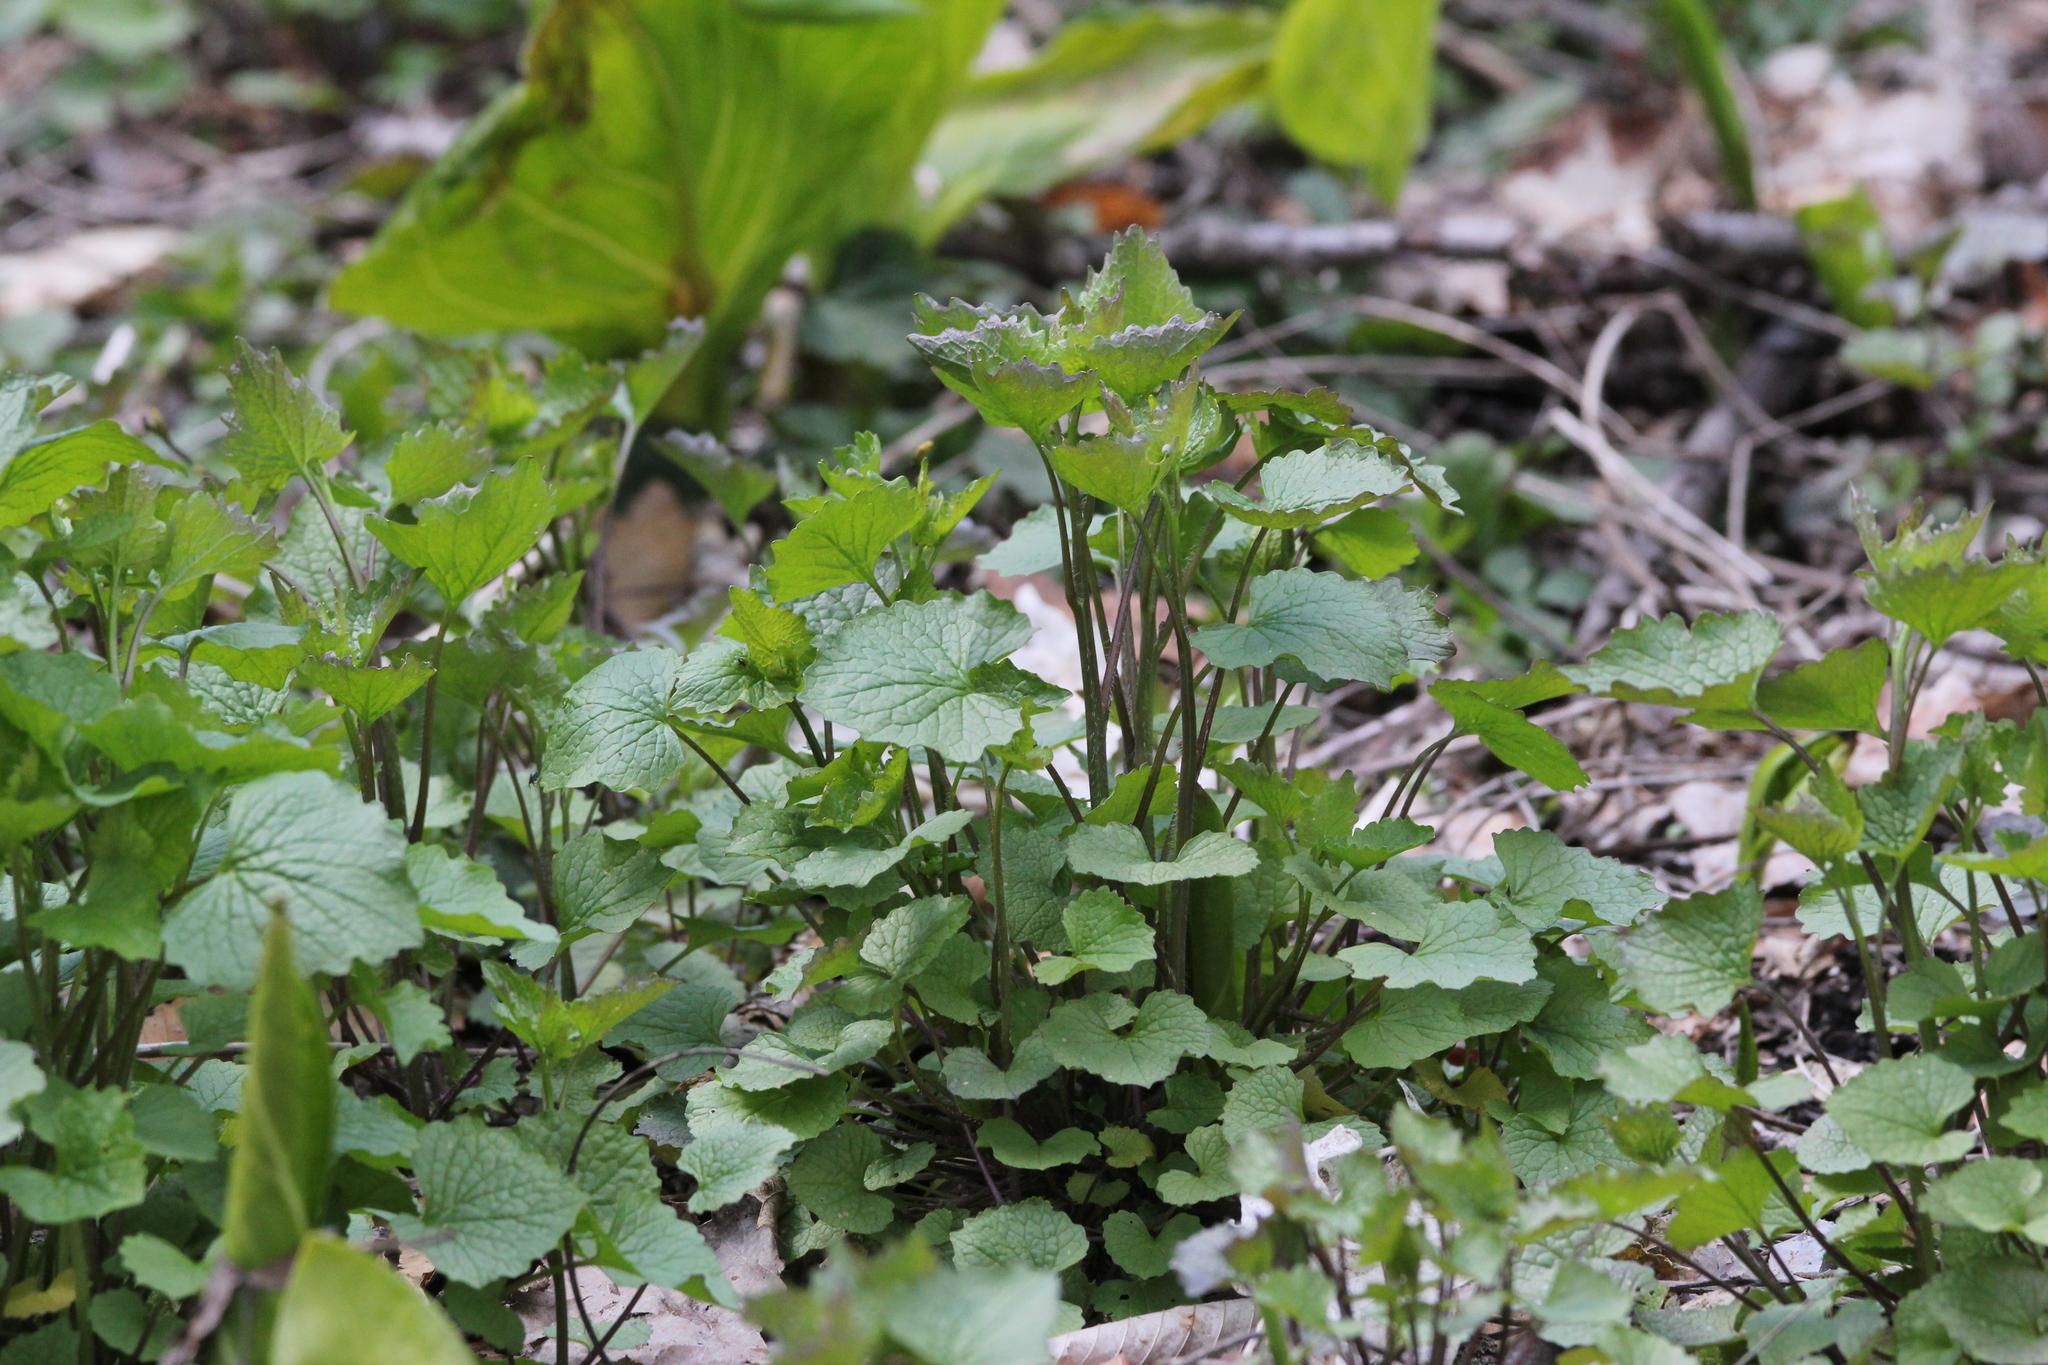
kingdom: Plantae
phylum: Tracheophyta
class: Magnoliopsida
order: Brassicales
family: Brassicaceae
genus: Alliaria
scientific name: Alliaria petiolata
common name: Garlic mustard
